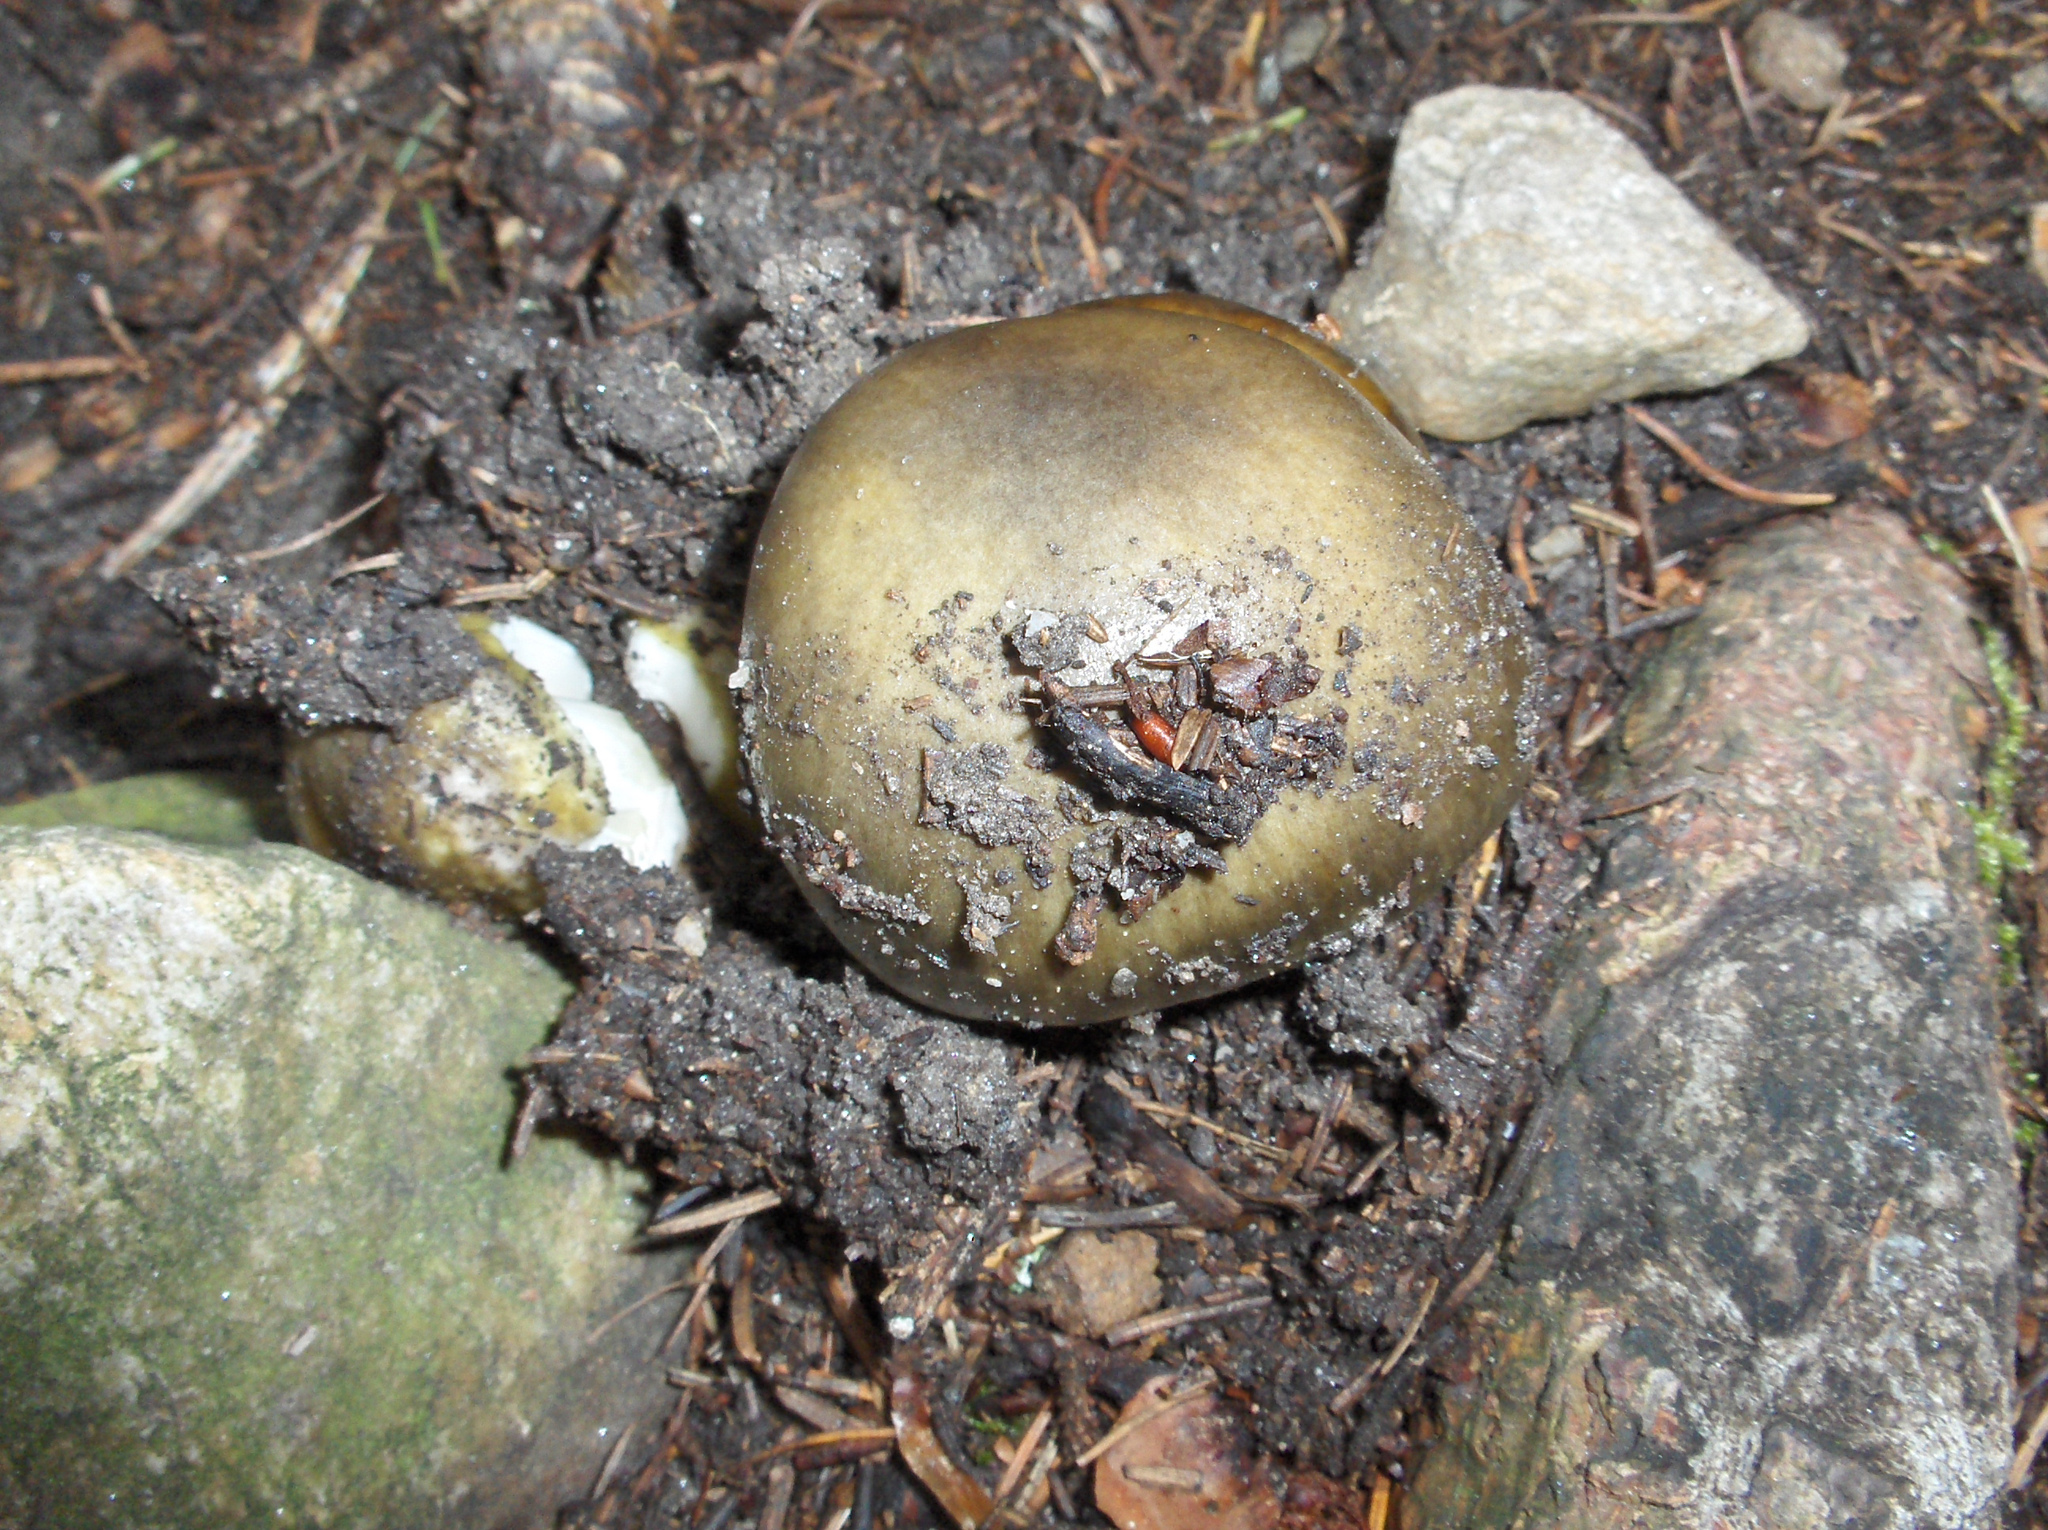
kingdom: Fungi
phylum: Basidiomycota
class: Agaricomycetes
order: Agaricales
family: Amanitaceae
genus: Amanita
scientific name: Amanita phalloides
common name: Death cap
